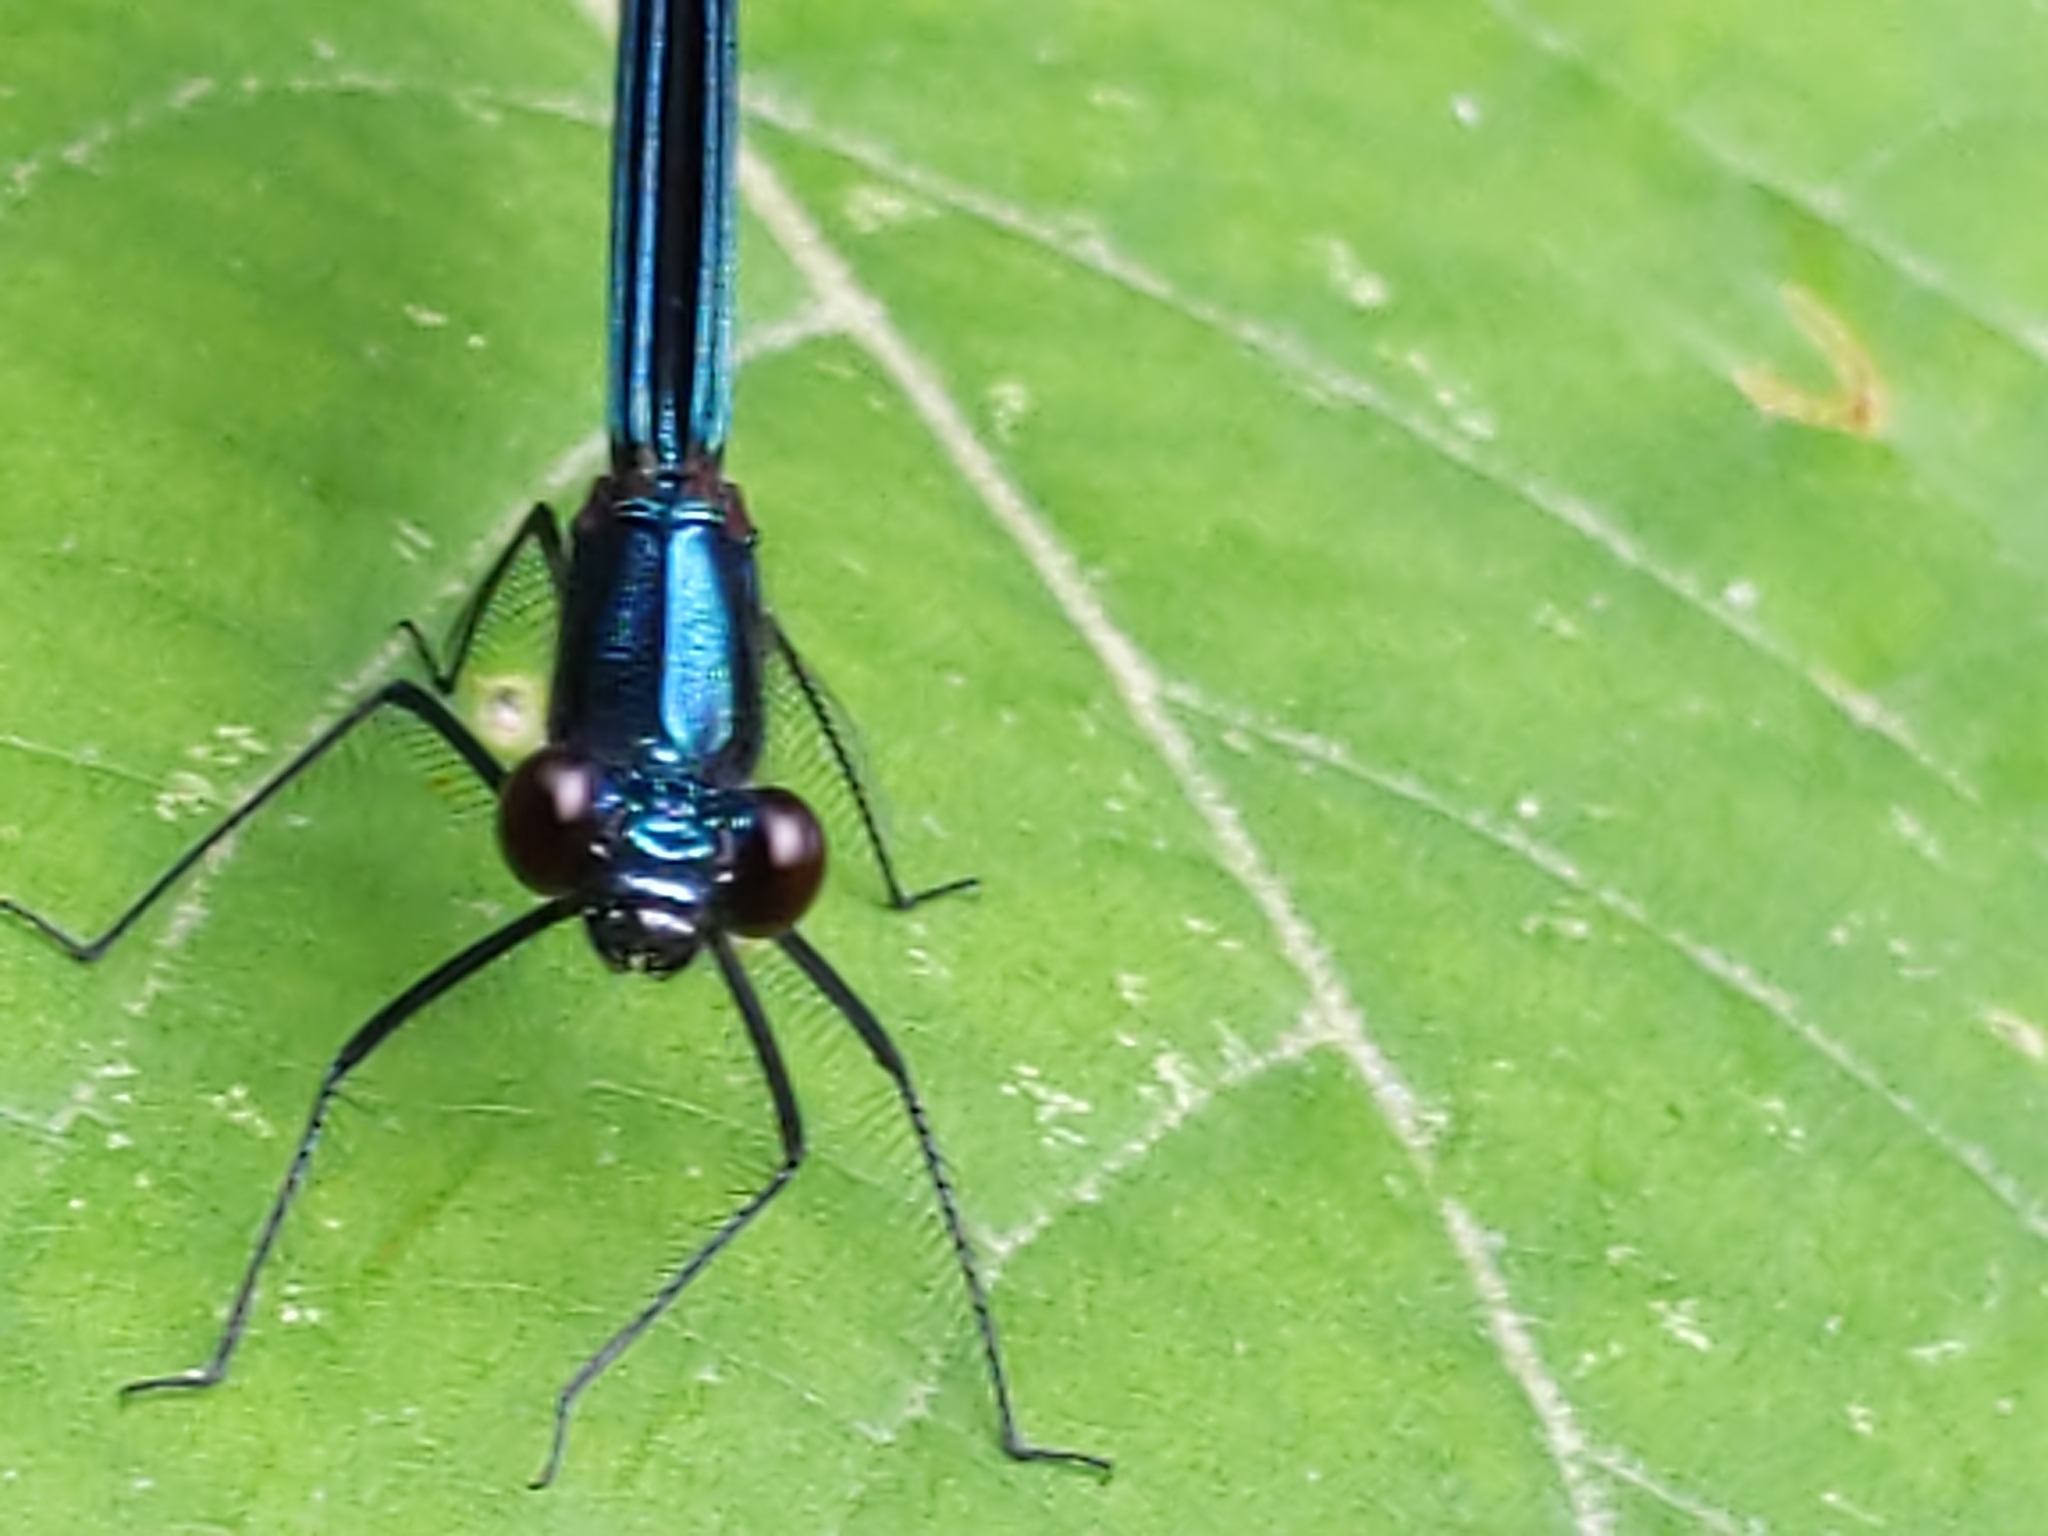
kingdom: Animalia
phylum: Arthropoda
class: Insecta
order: Odonata
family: Calopterygidae
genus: Calopteryx
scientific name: Calopteryx maculata
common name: Ebony jewelwing
